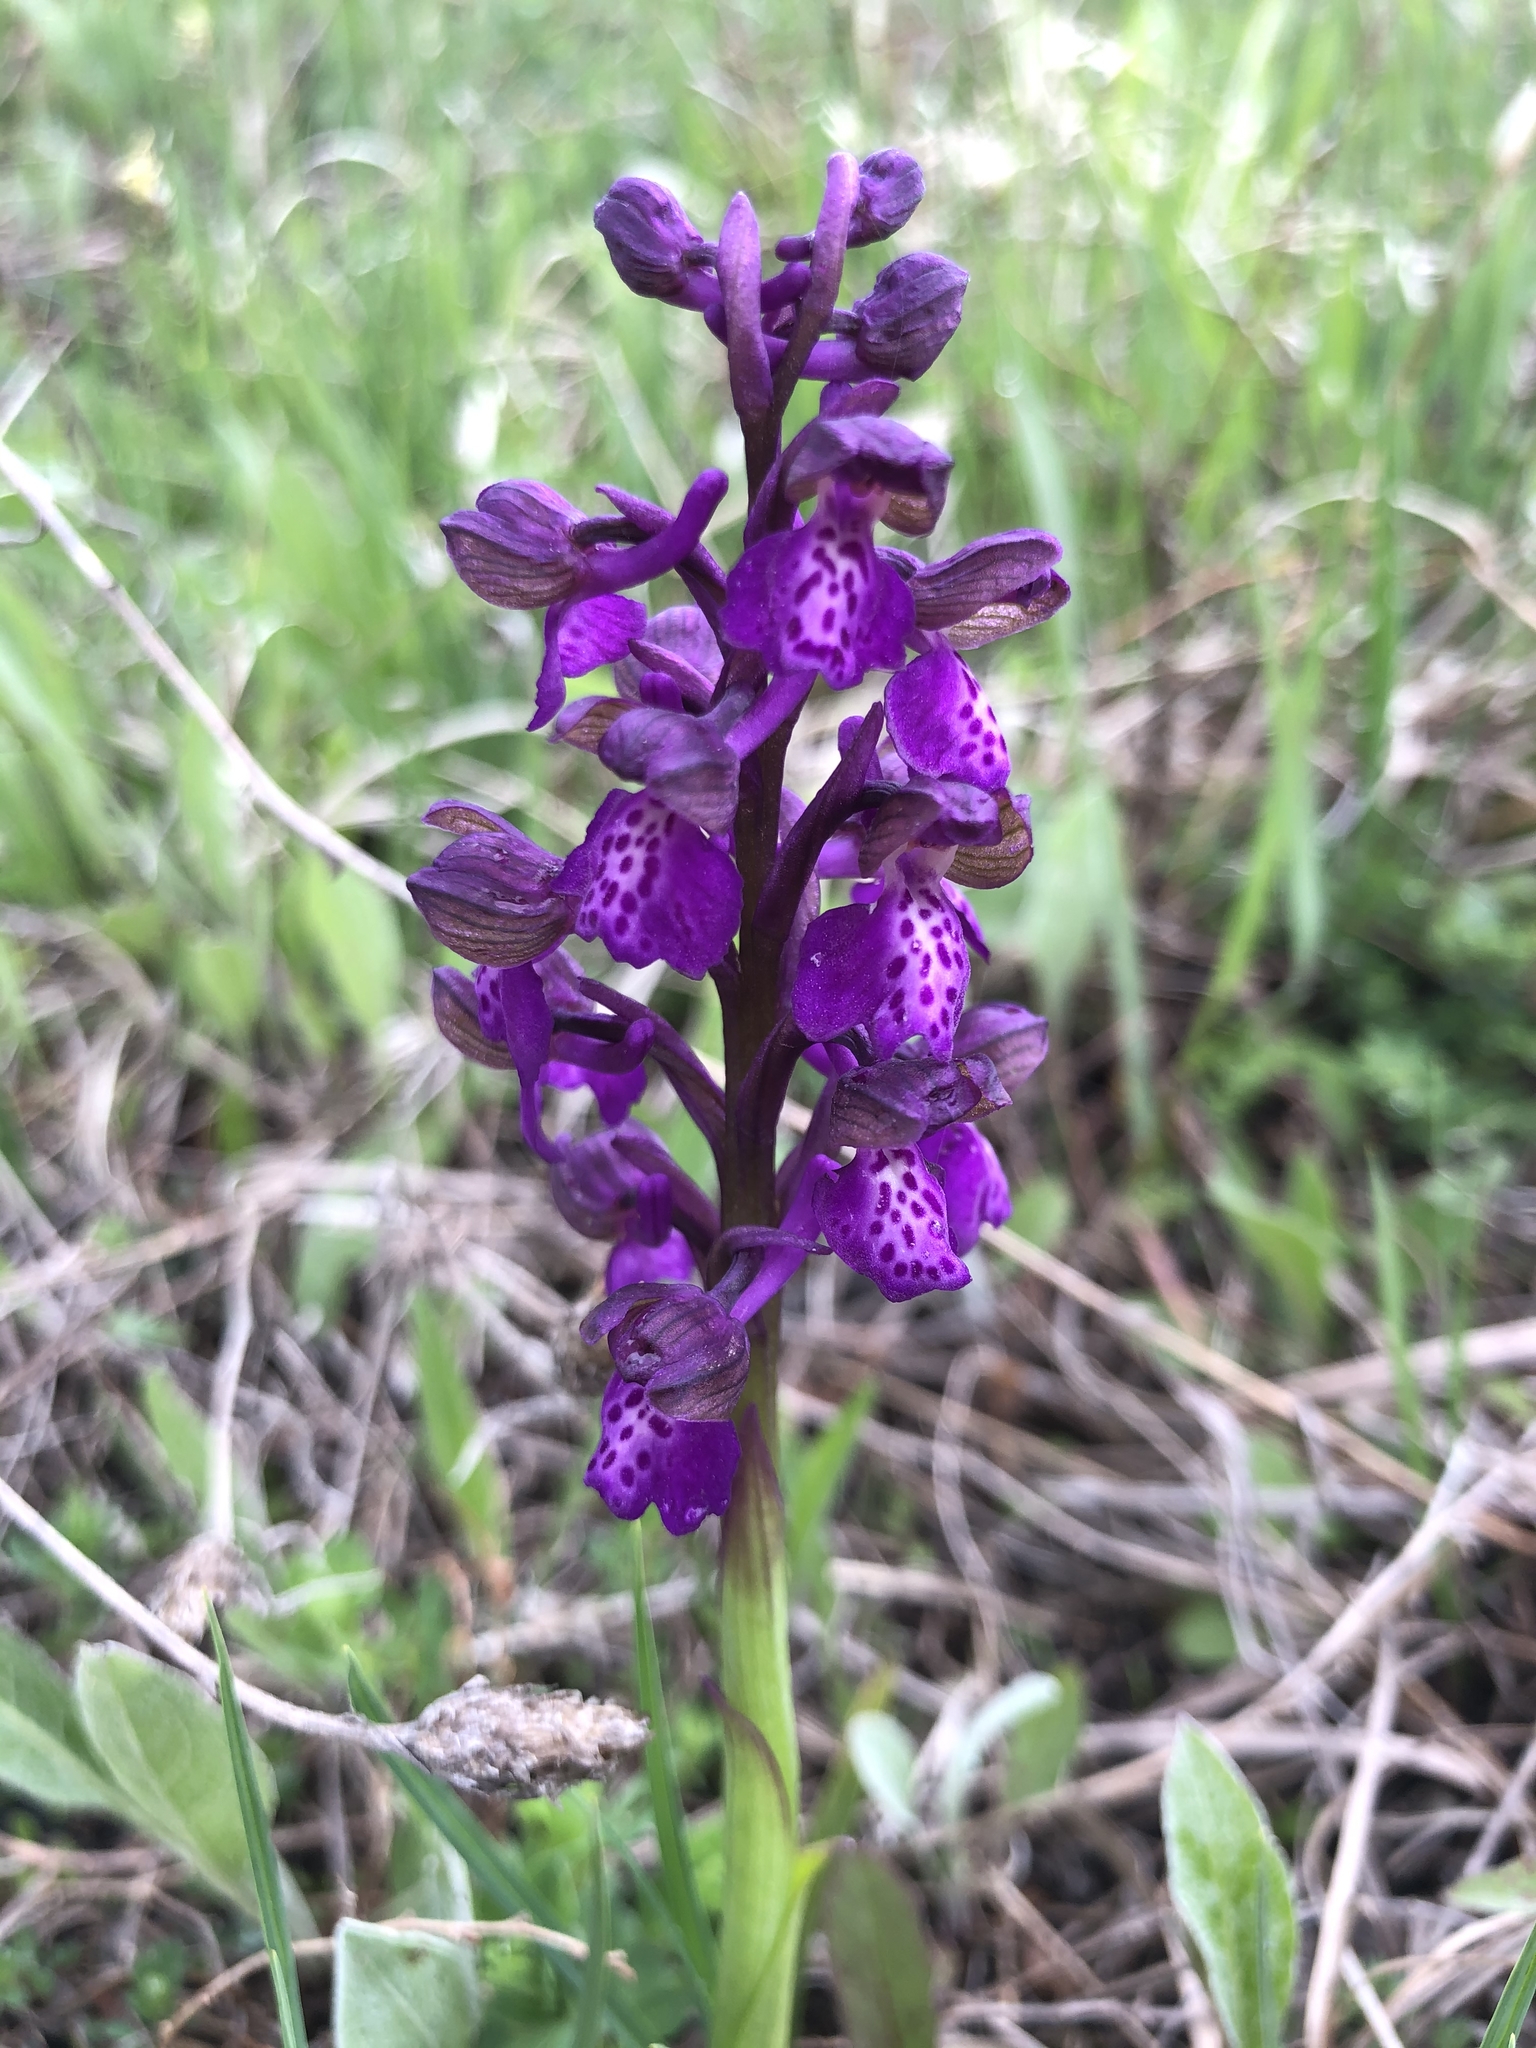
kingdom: Plantae
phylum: Tracheophyta
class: Liliopsida
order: Asparagales
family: Orchidaceae
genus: Anacamptis
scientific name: Anacamptis morio
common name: Green-winged orchid
